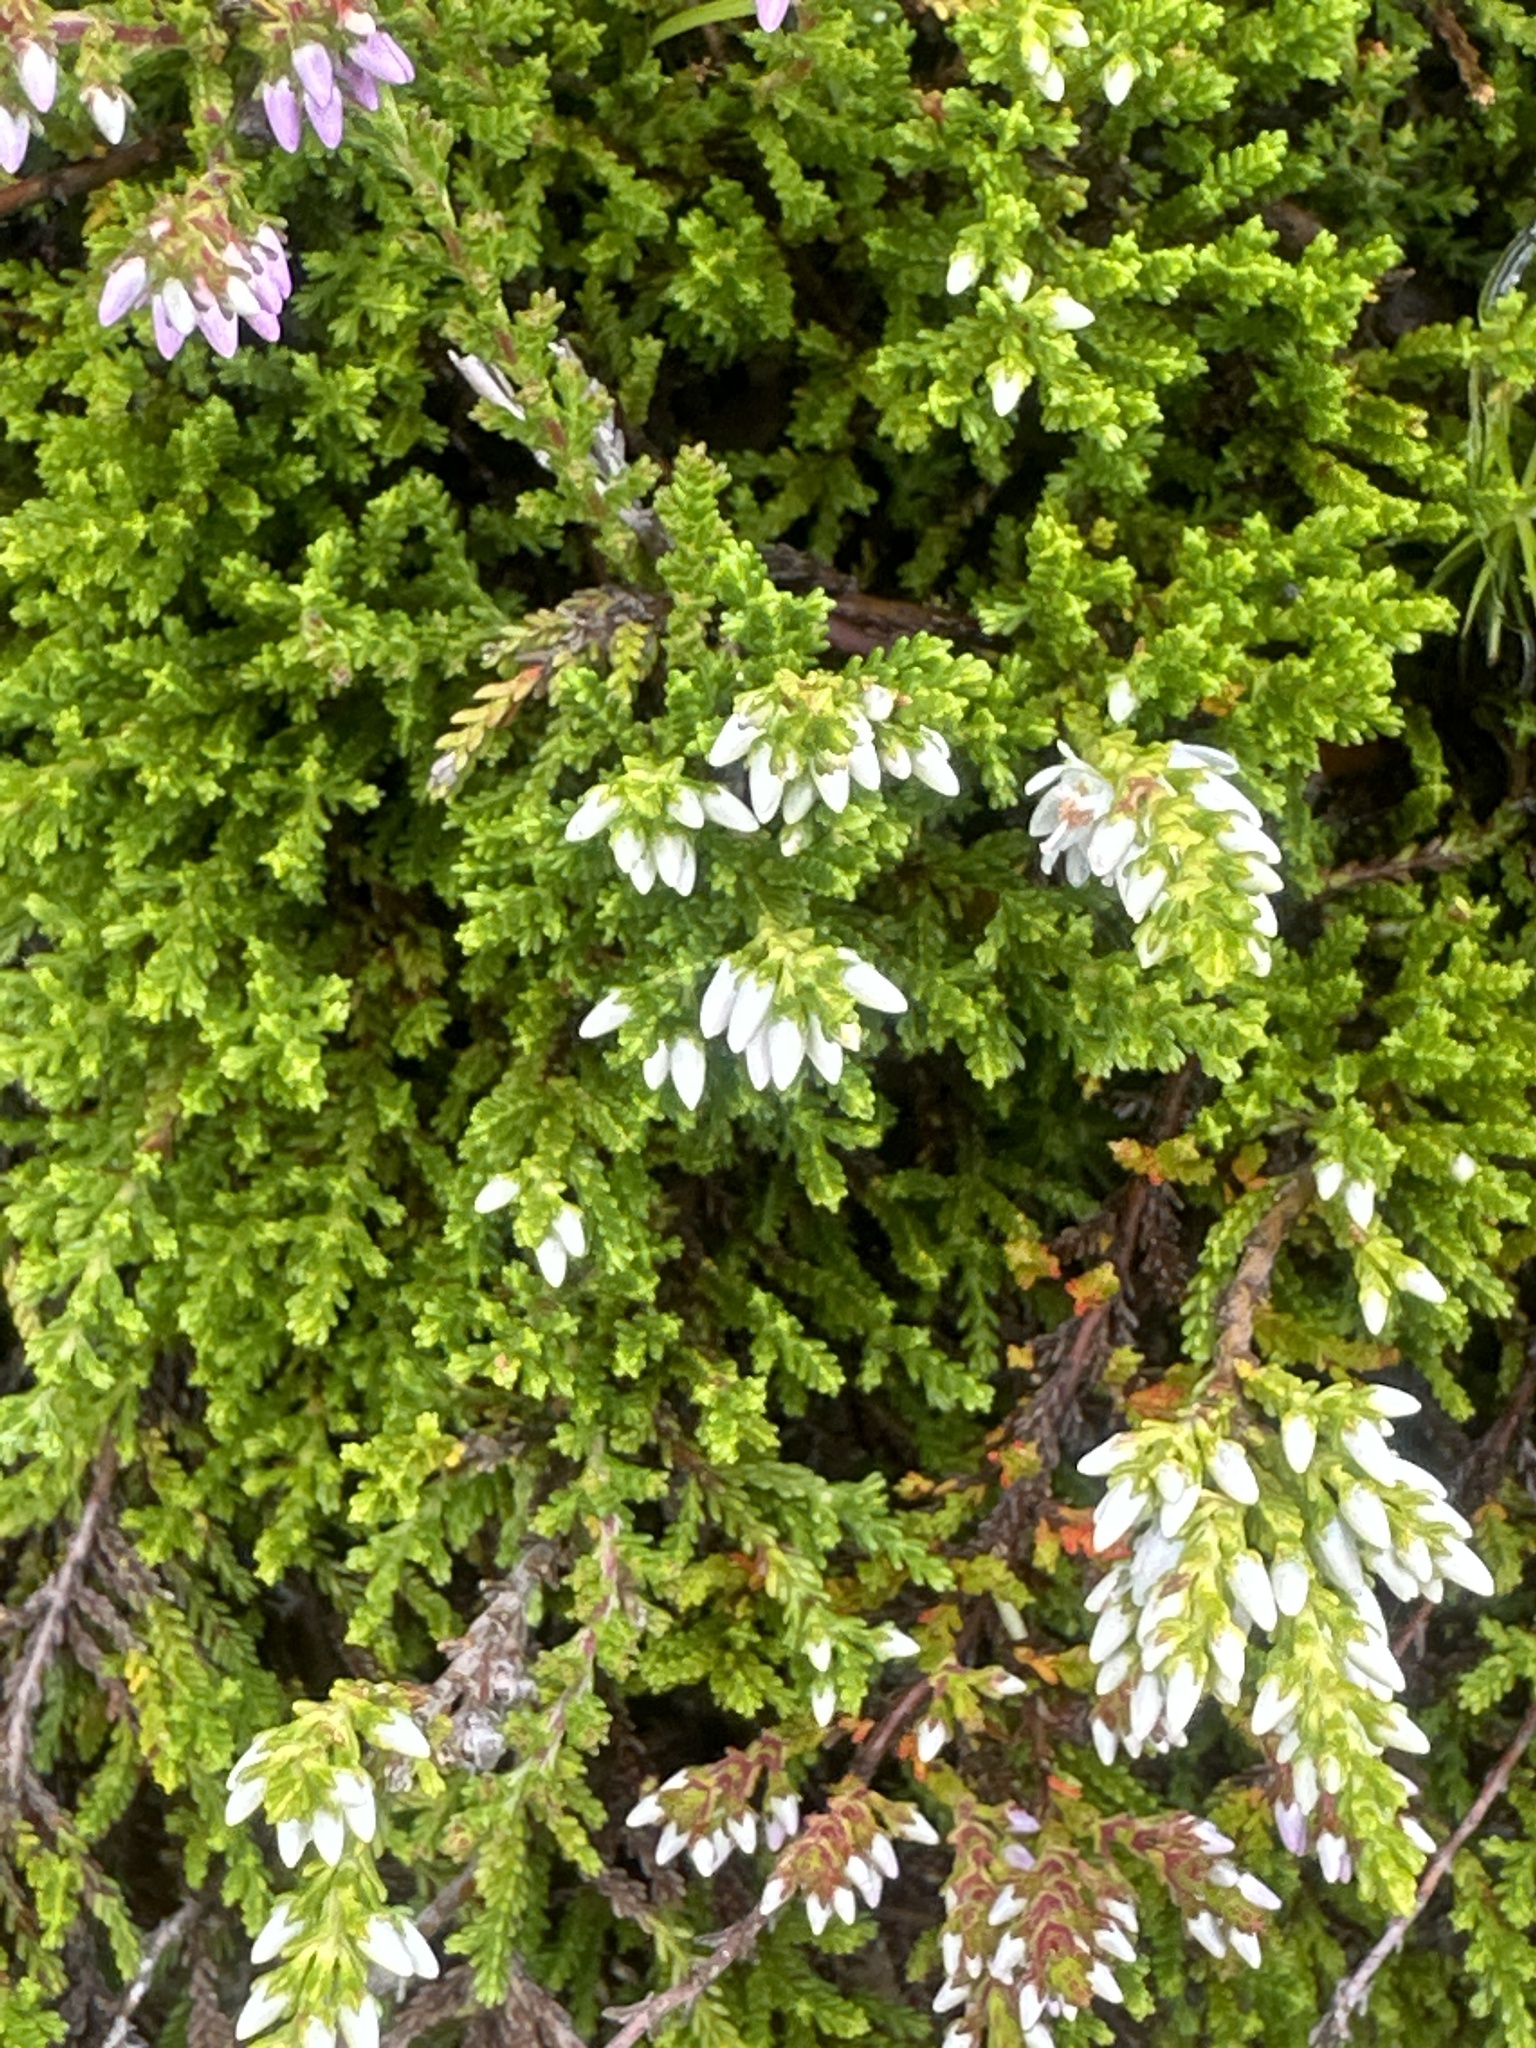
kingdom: Plantae
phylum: Tracheophyta
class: Magnoliopsida
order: Ericales
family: Ericaceae
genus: Calluna
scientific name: Calluna vulgaris
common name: Heather
